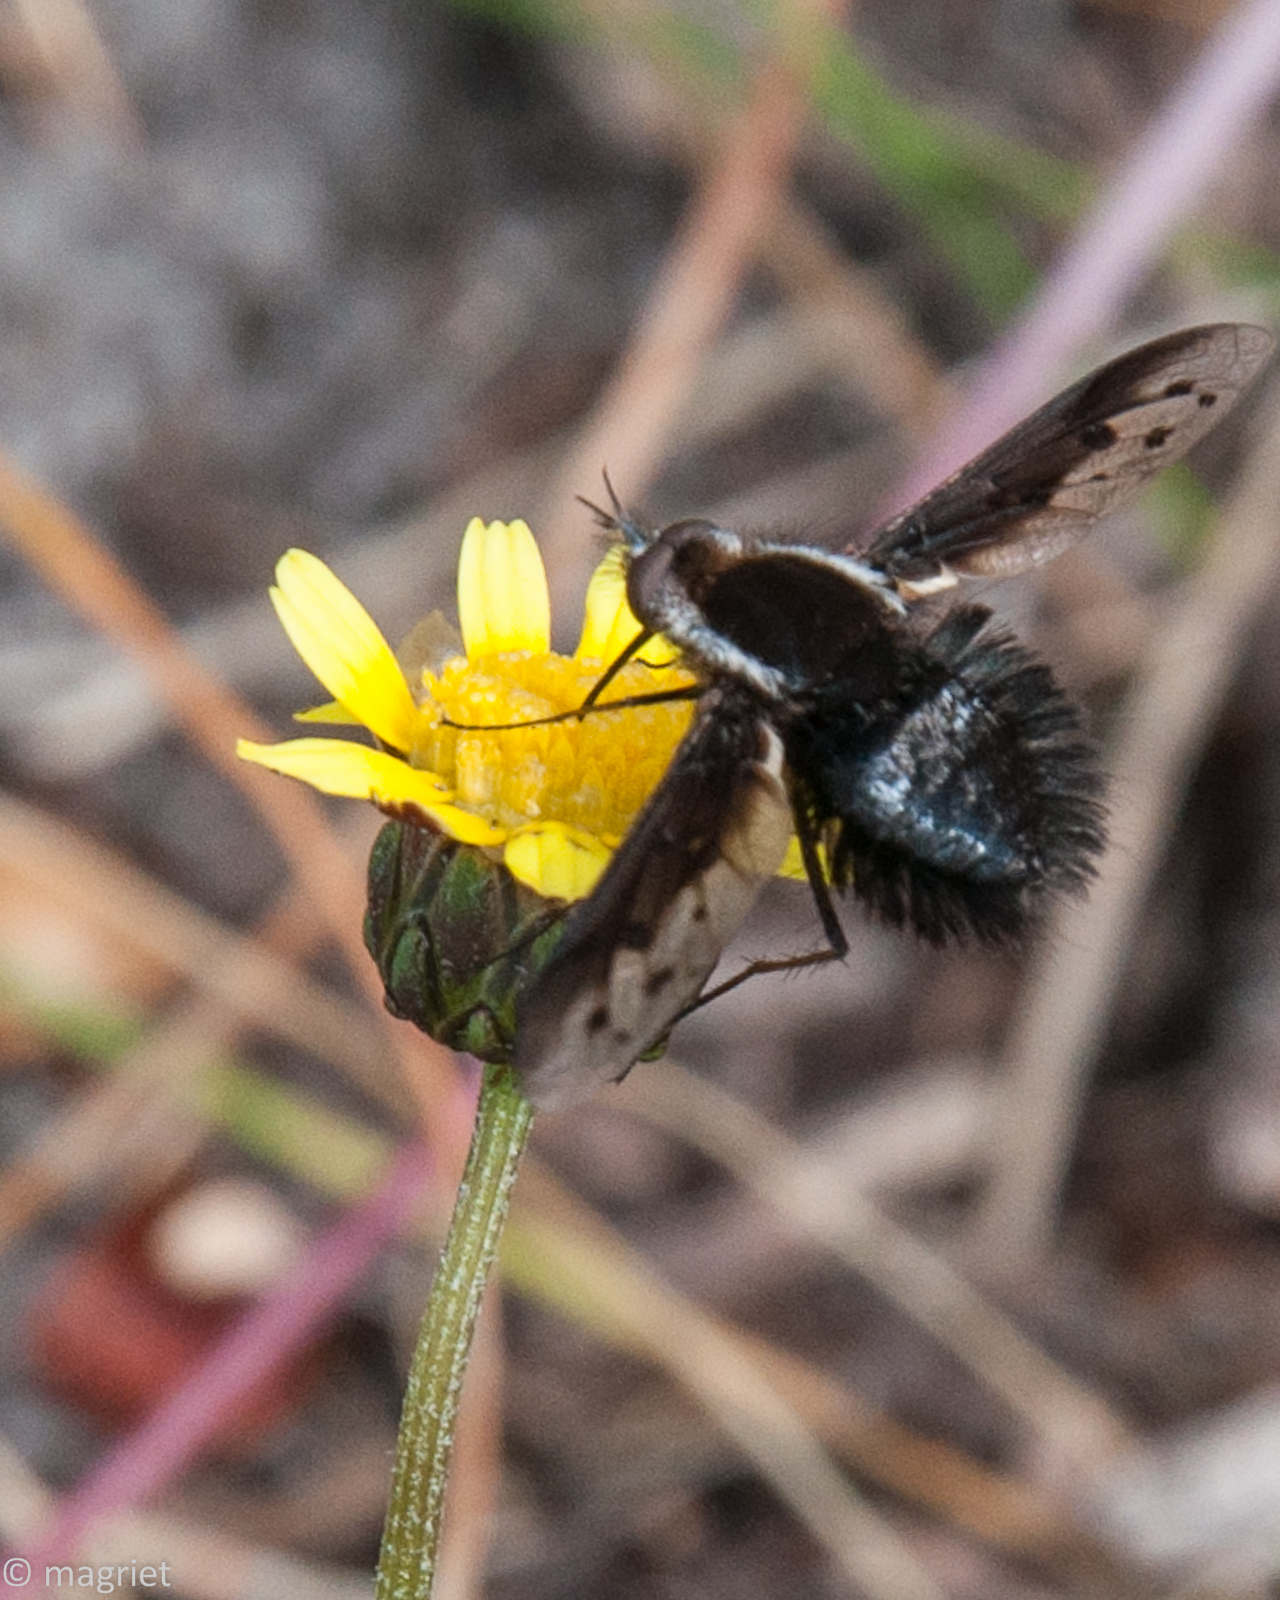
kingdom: Animalia
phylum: Arthropoda
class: Insecta
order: Diptera
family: Bombyliidae
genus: Triplasius
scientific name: Triplasius lateralis
